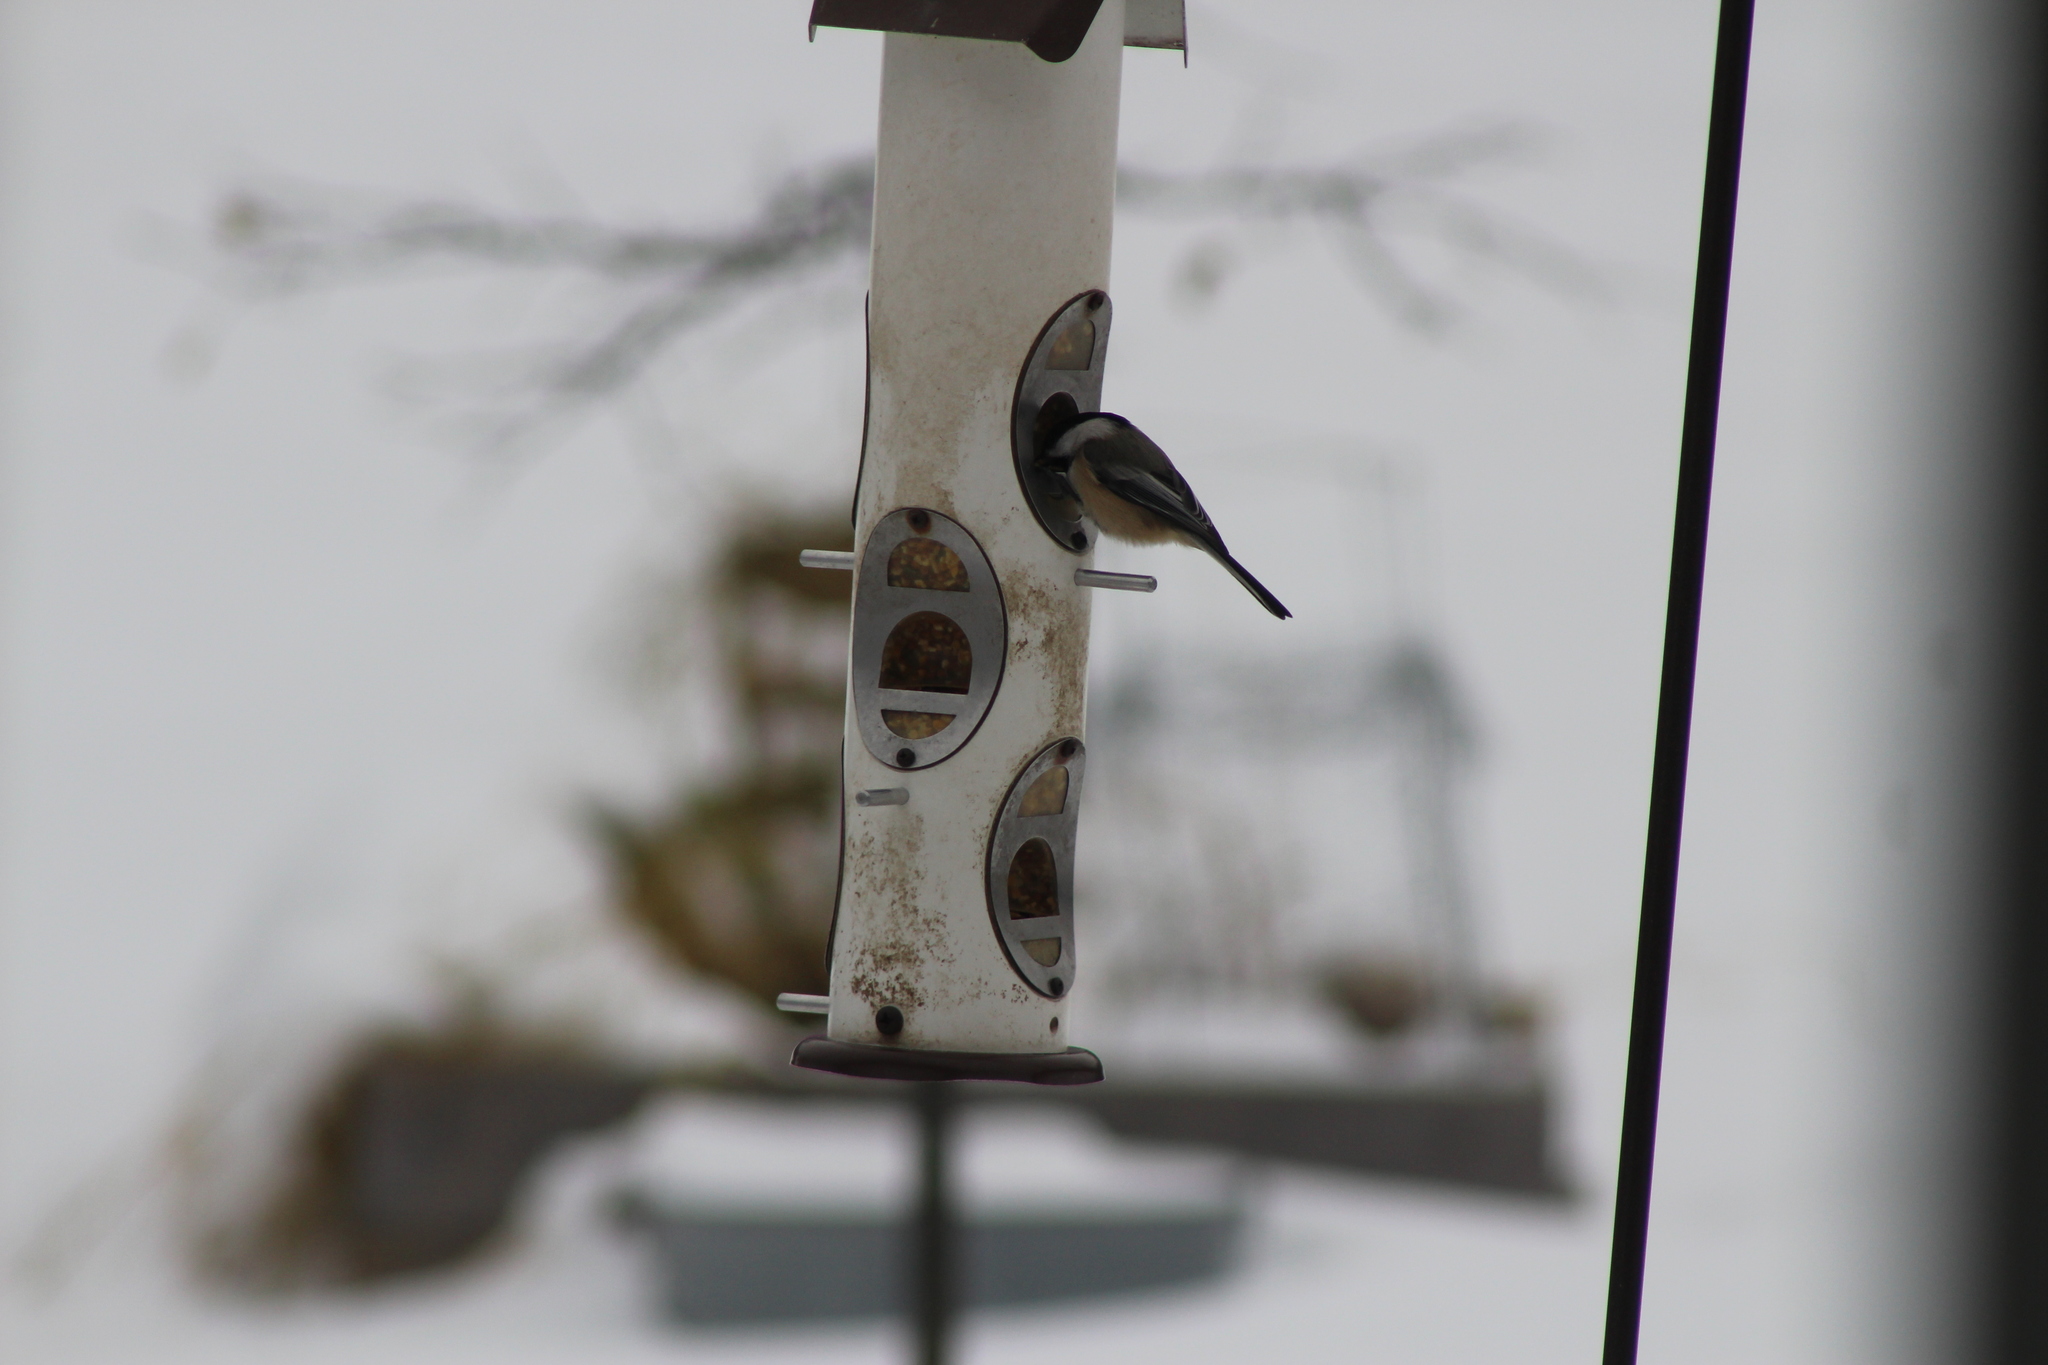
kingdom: Animalia
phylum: Chordata
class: Aves
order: Passeriformes
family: Paridae
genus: Poecile
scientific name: Poecile atricapillus
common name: Black-capped chickadee
